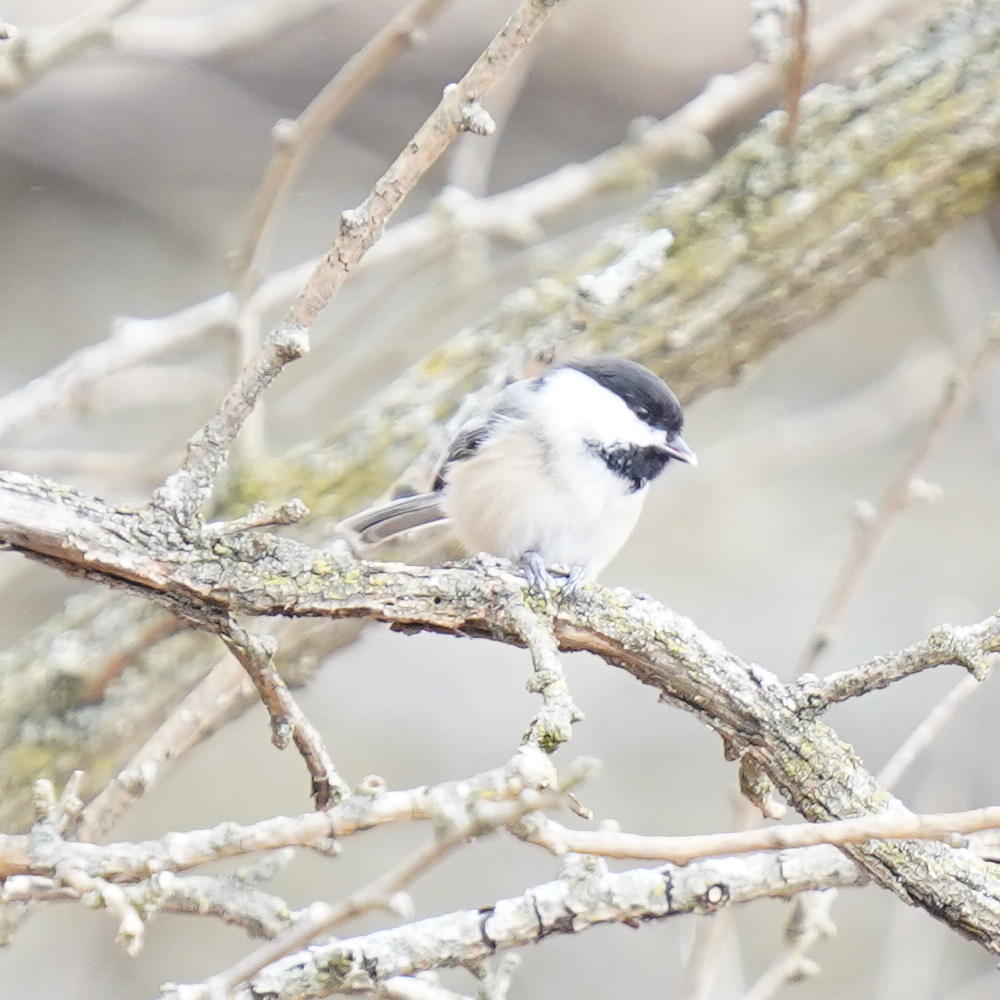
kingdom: Animalia
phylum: Chordata
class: Aves
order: Passeriformes
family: Paridae
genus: Poecile
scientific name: Poecile atricapillus
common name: Black-capped chickadee
